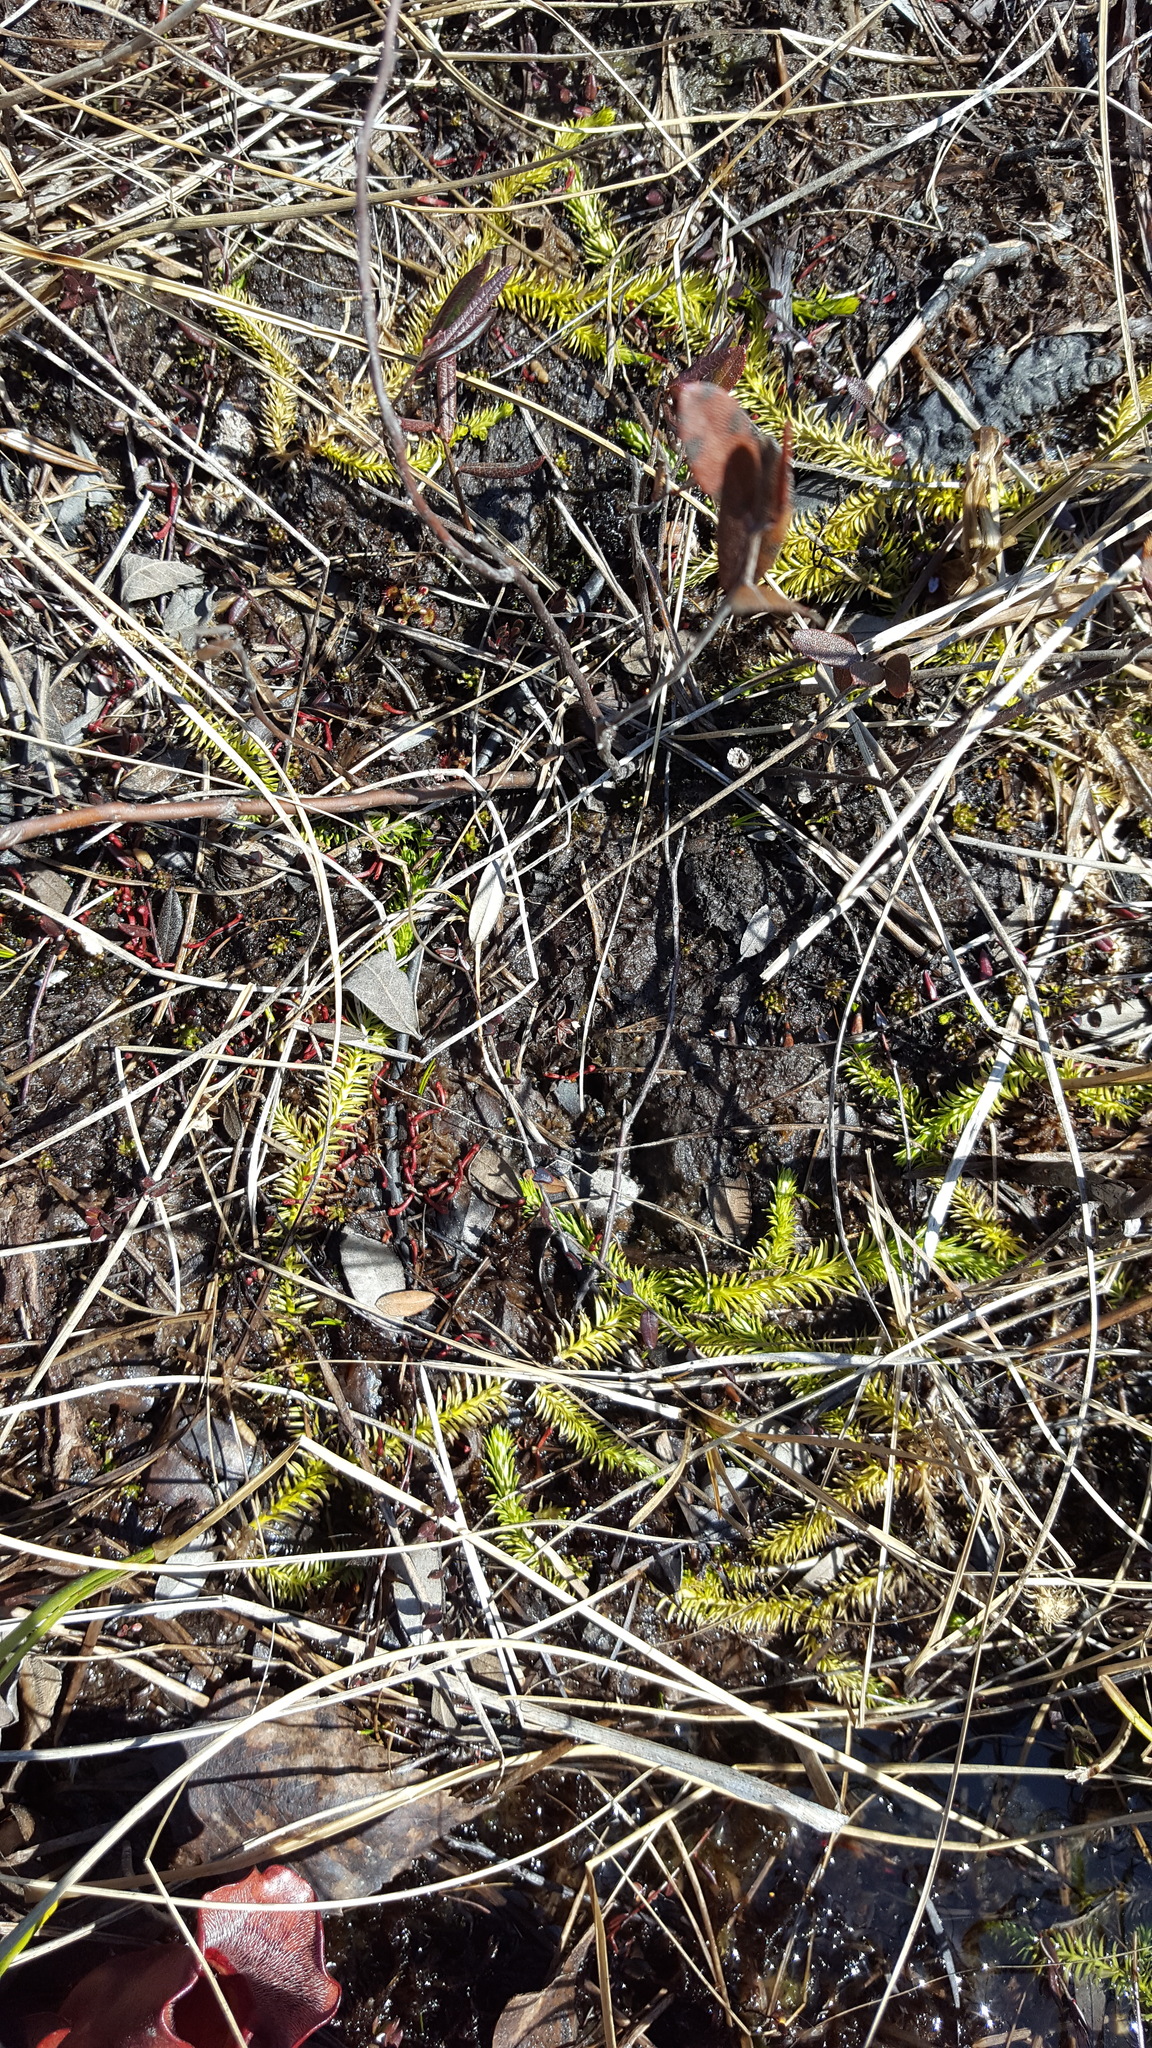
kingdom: Plantae
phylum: Tracheophyta
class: Lycopodiopsida
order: Lycopodiales
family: Lycopodiaceae
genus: Lycopodiella
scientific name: Lycopodiella inundata
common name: Marsh clubmoss
